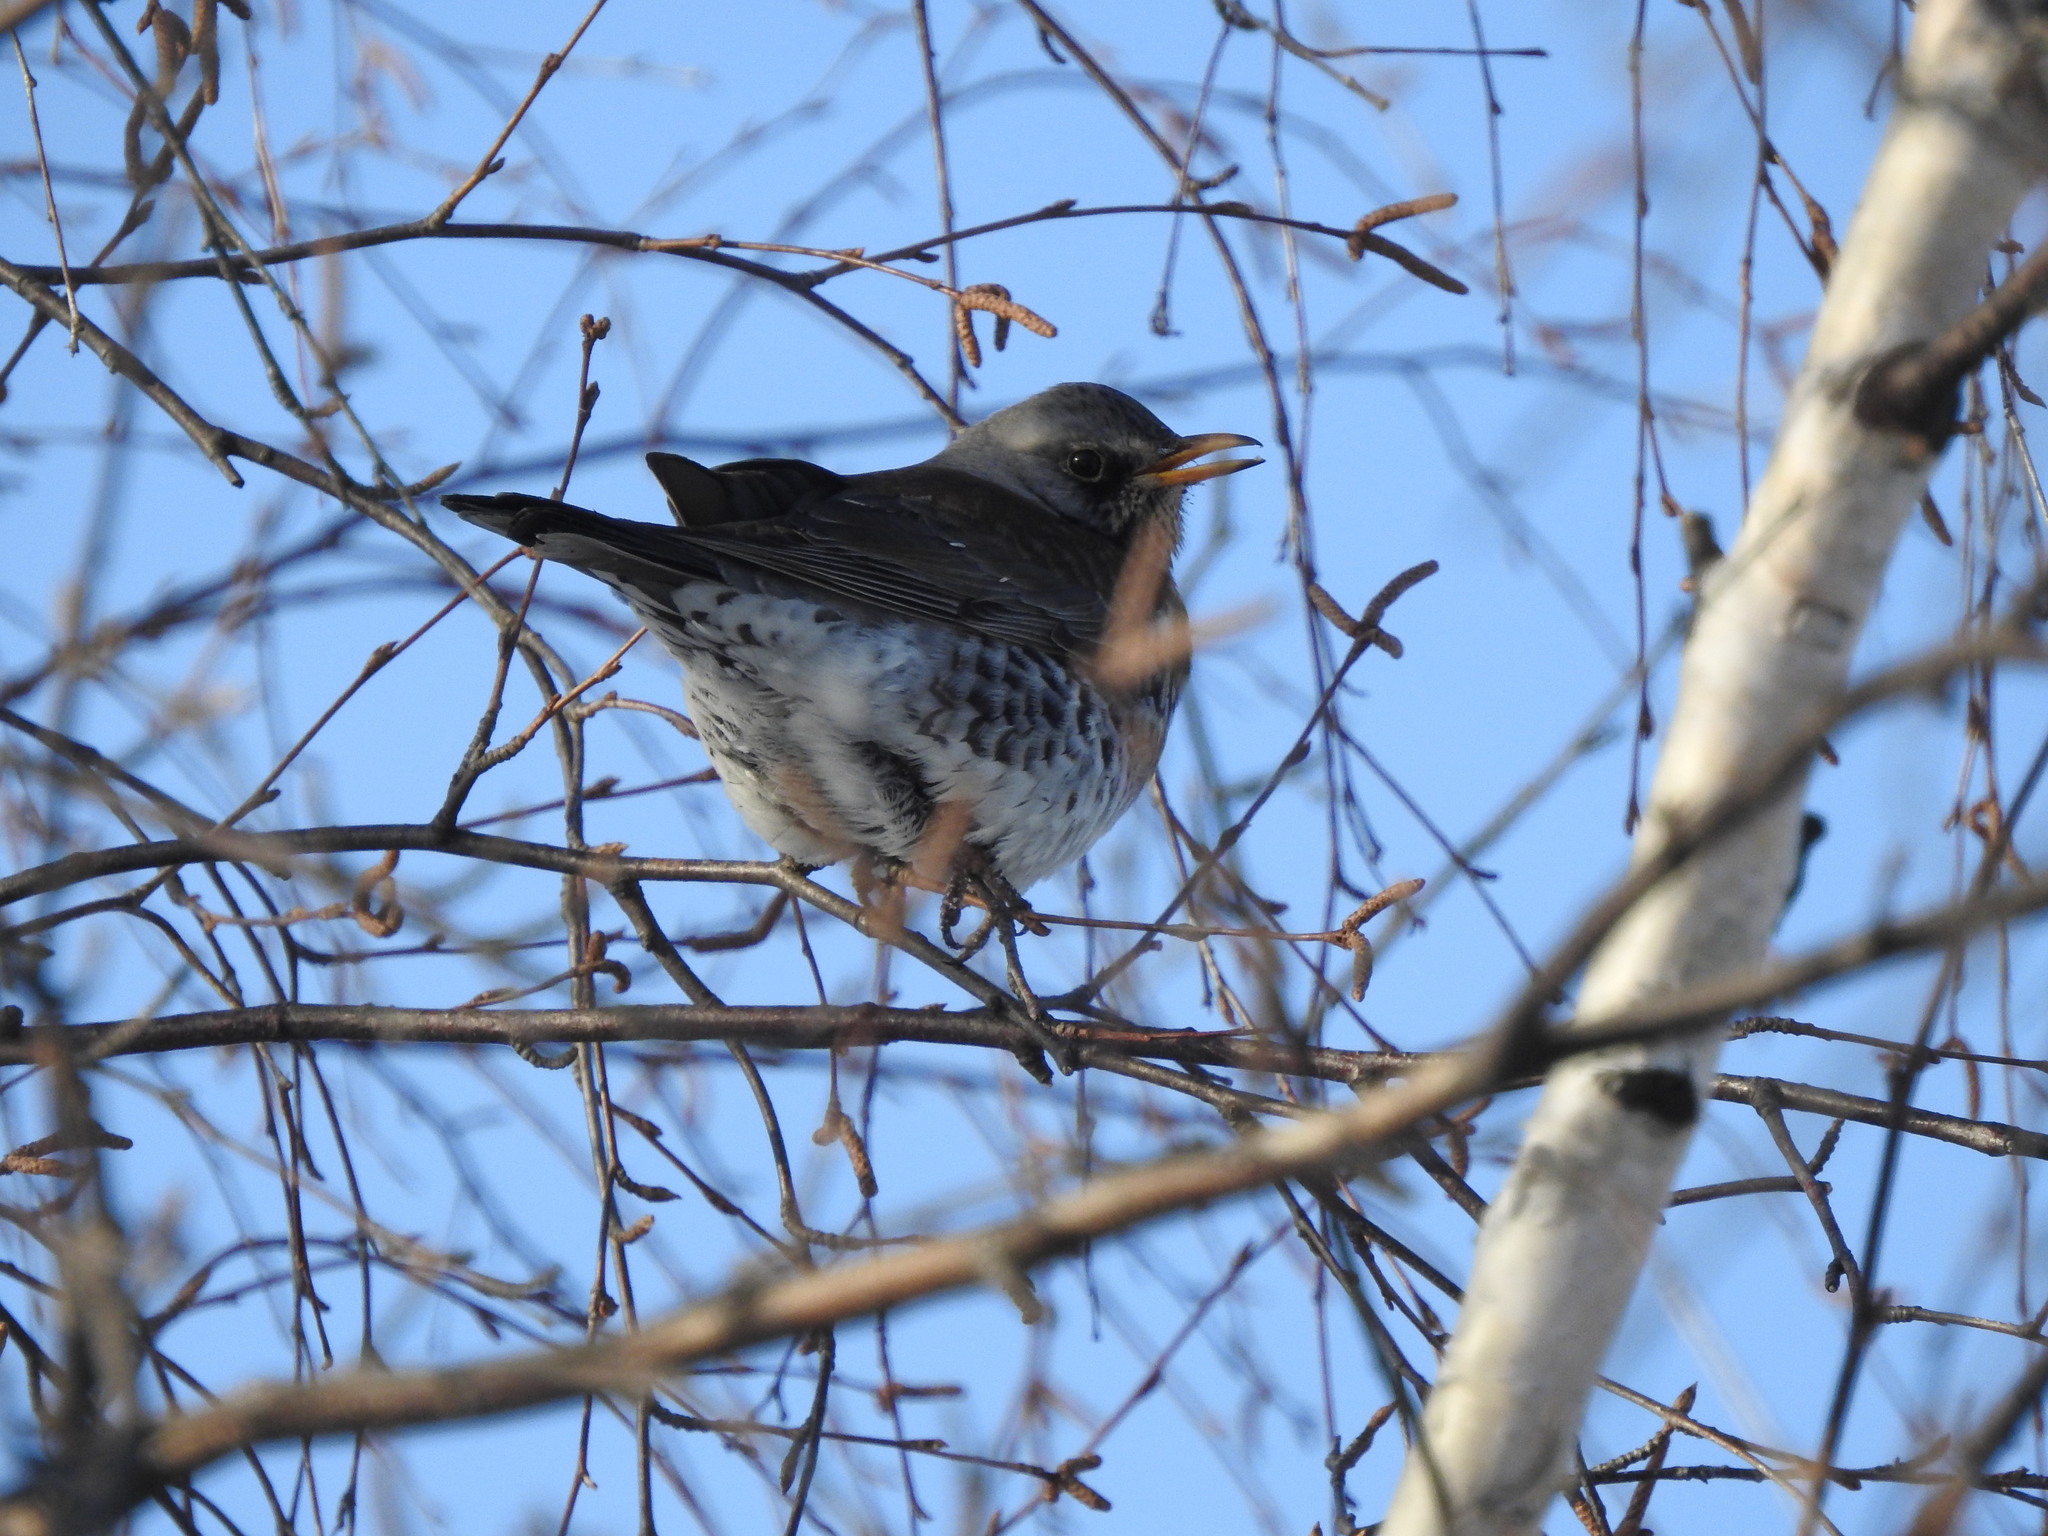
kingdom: Animalia
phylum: Chordata
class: Aves
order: Passeriformes
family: Turdidae
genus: Turdus
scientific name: Turdus pilaris
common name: Fieldfare
